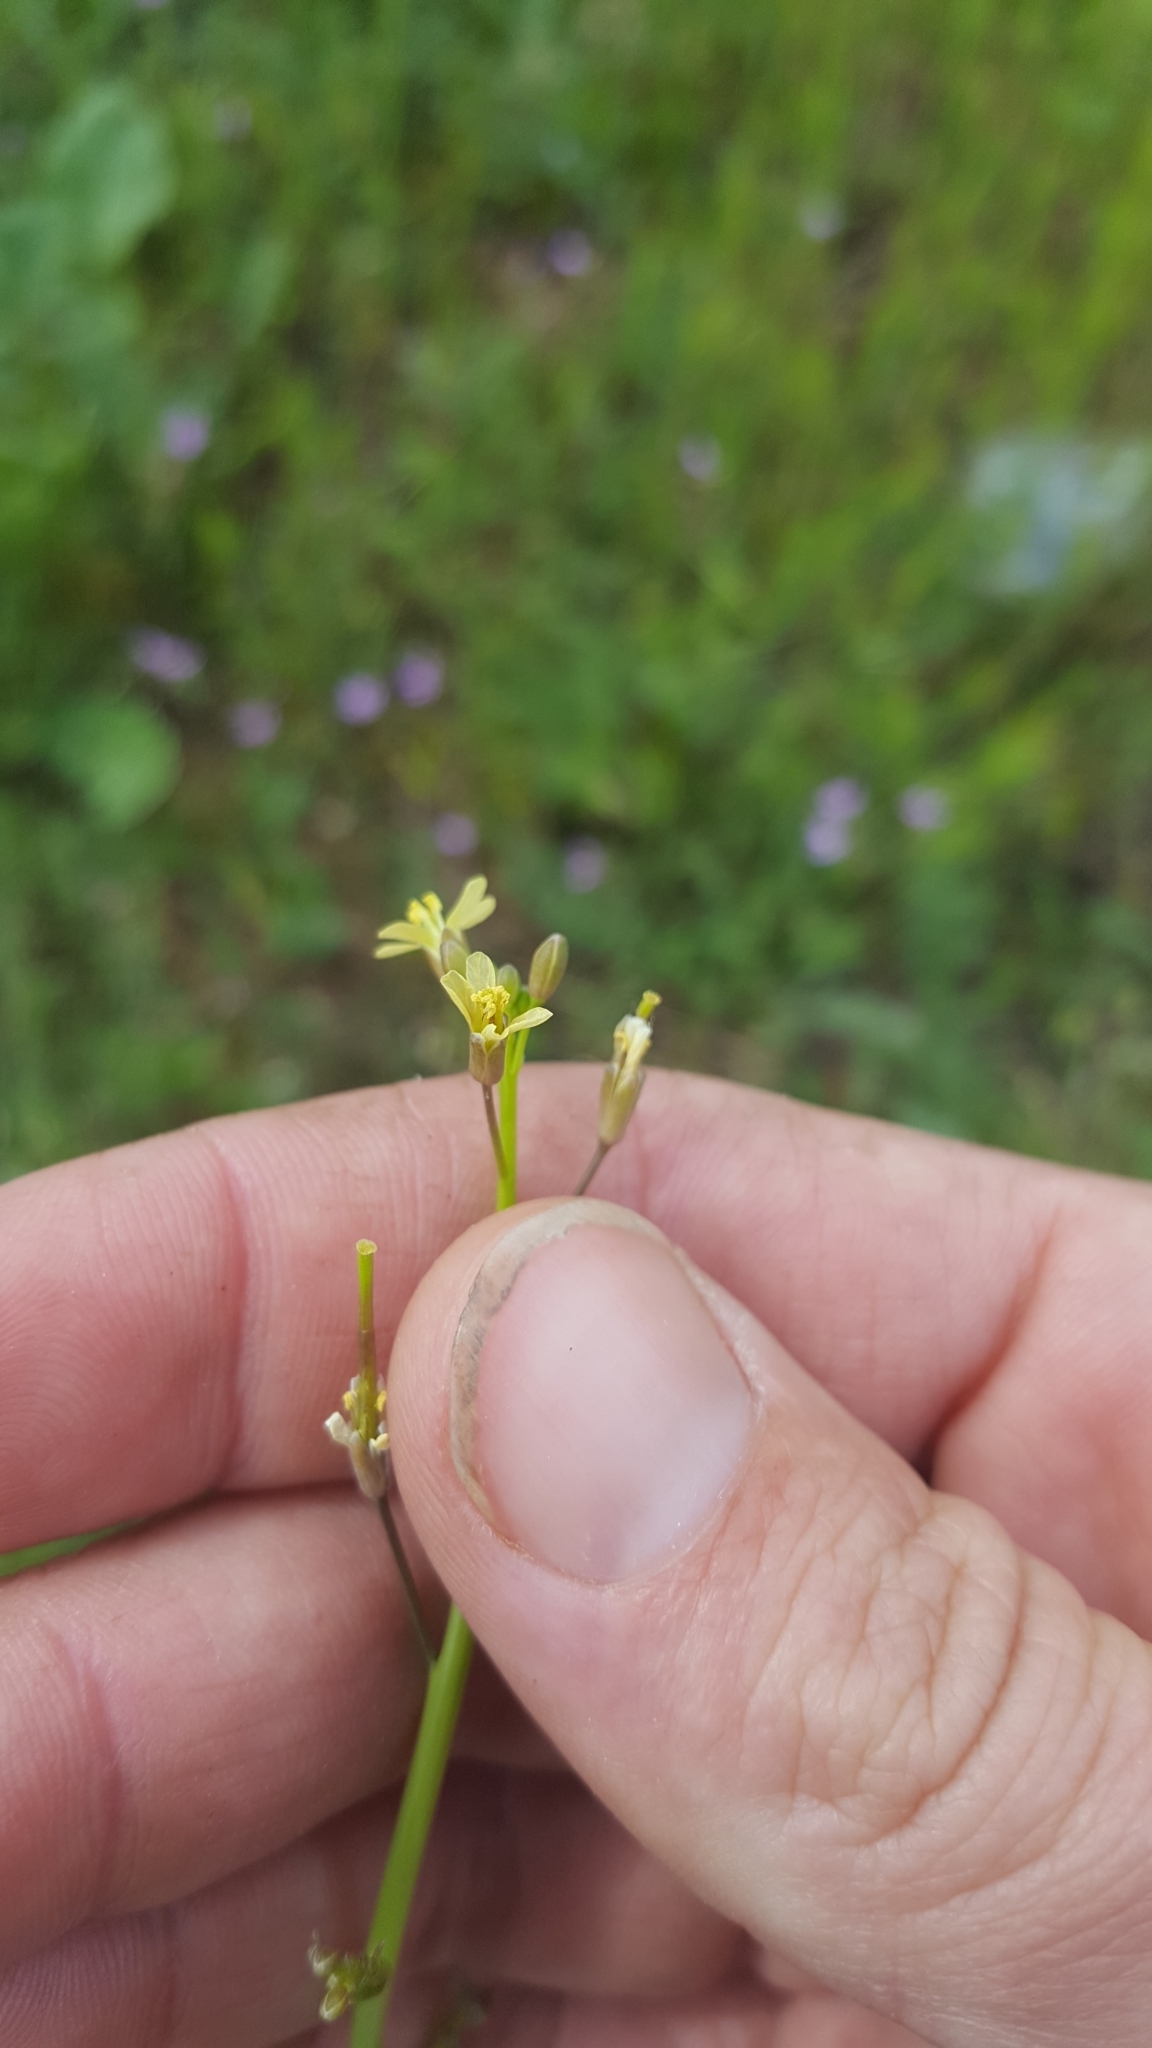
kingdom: Plantae
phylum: Tracheophyta
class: Magnoliopsida
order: Brassicales
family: Brassicaceae
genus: Brassica
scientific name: Brassica tournefortii
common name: Pale cabbage
